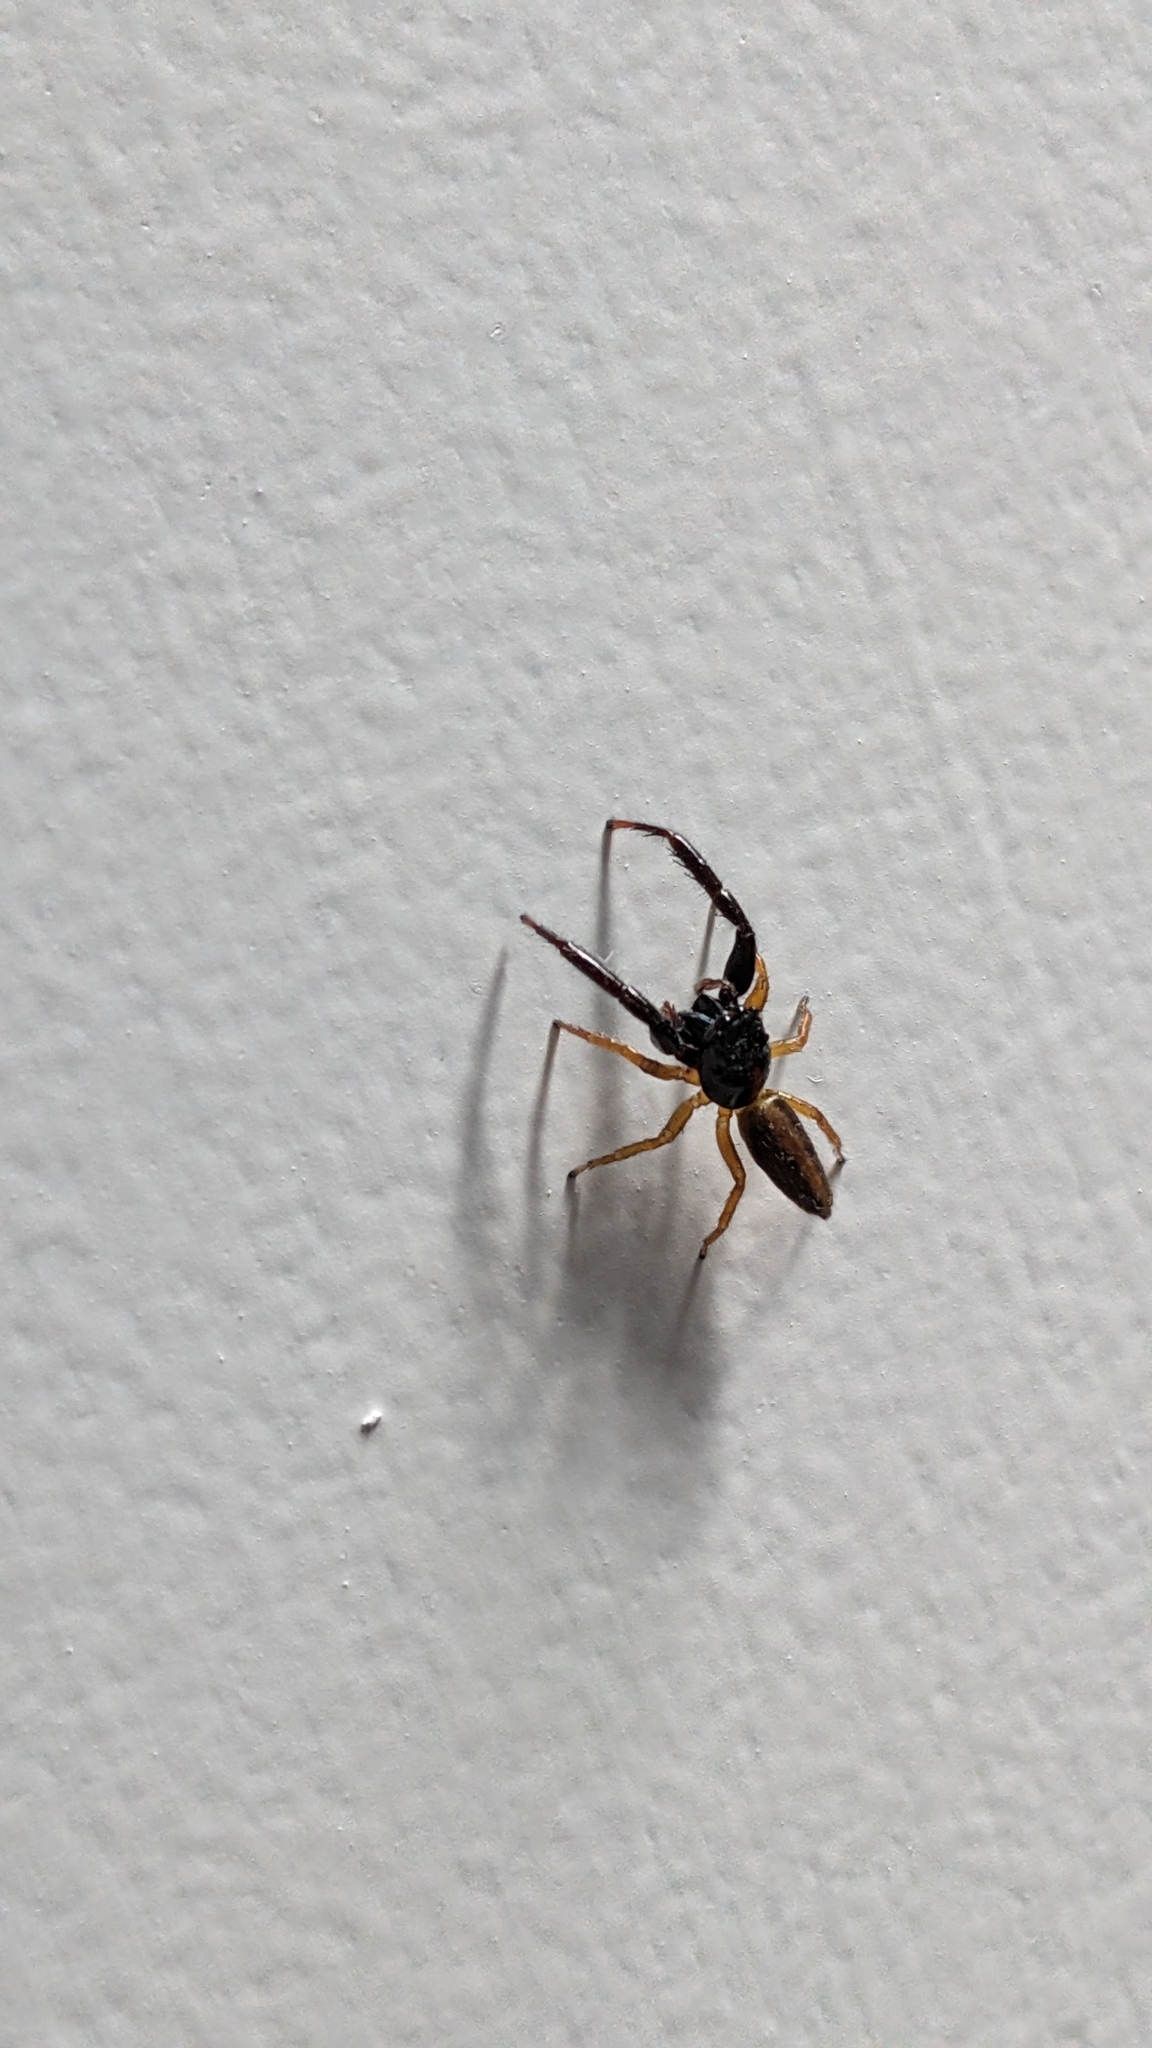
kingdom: Animalia
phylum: Arthropoda
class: Arachnida
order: Araneae
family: Salticidae
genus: Trite
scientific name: Trite planiceps
